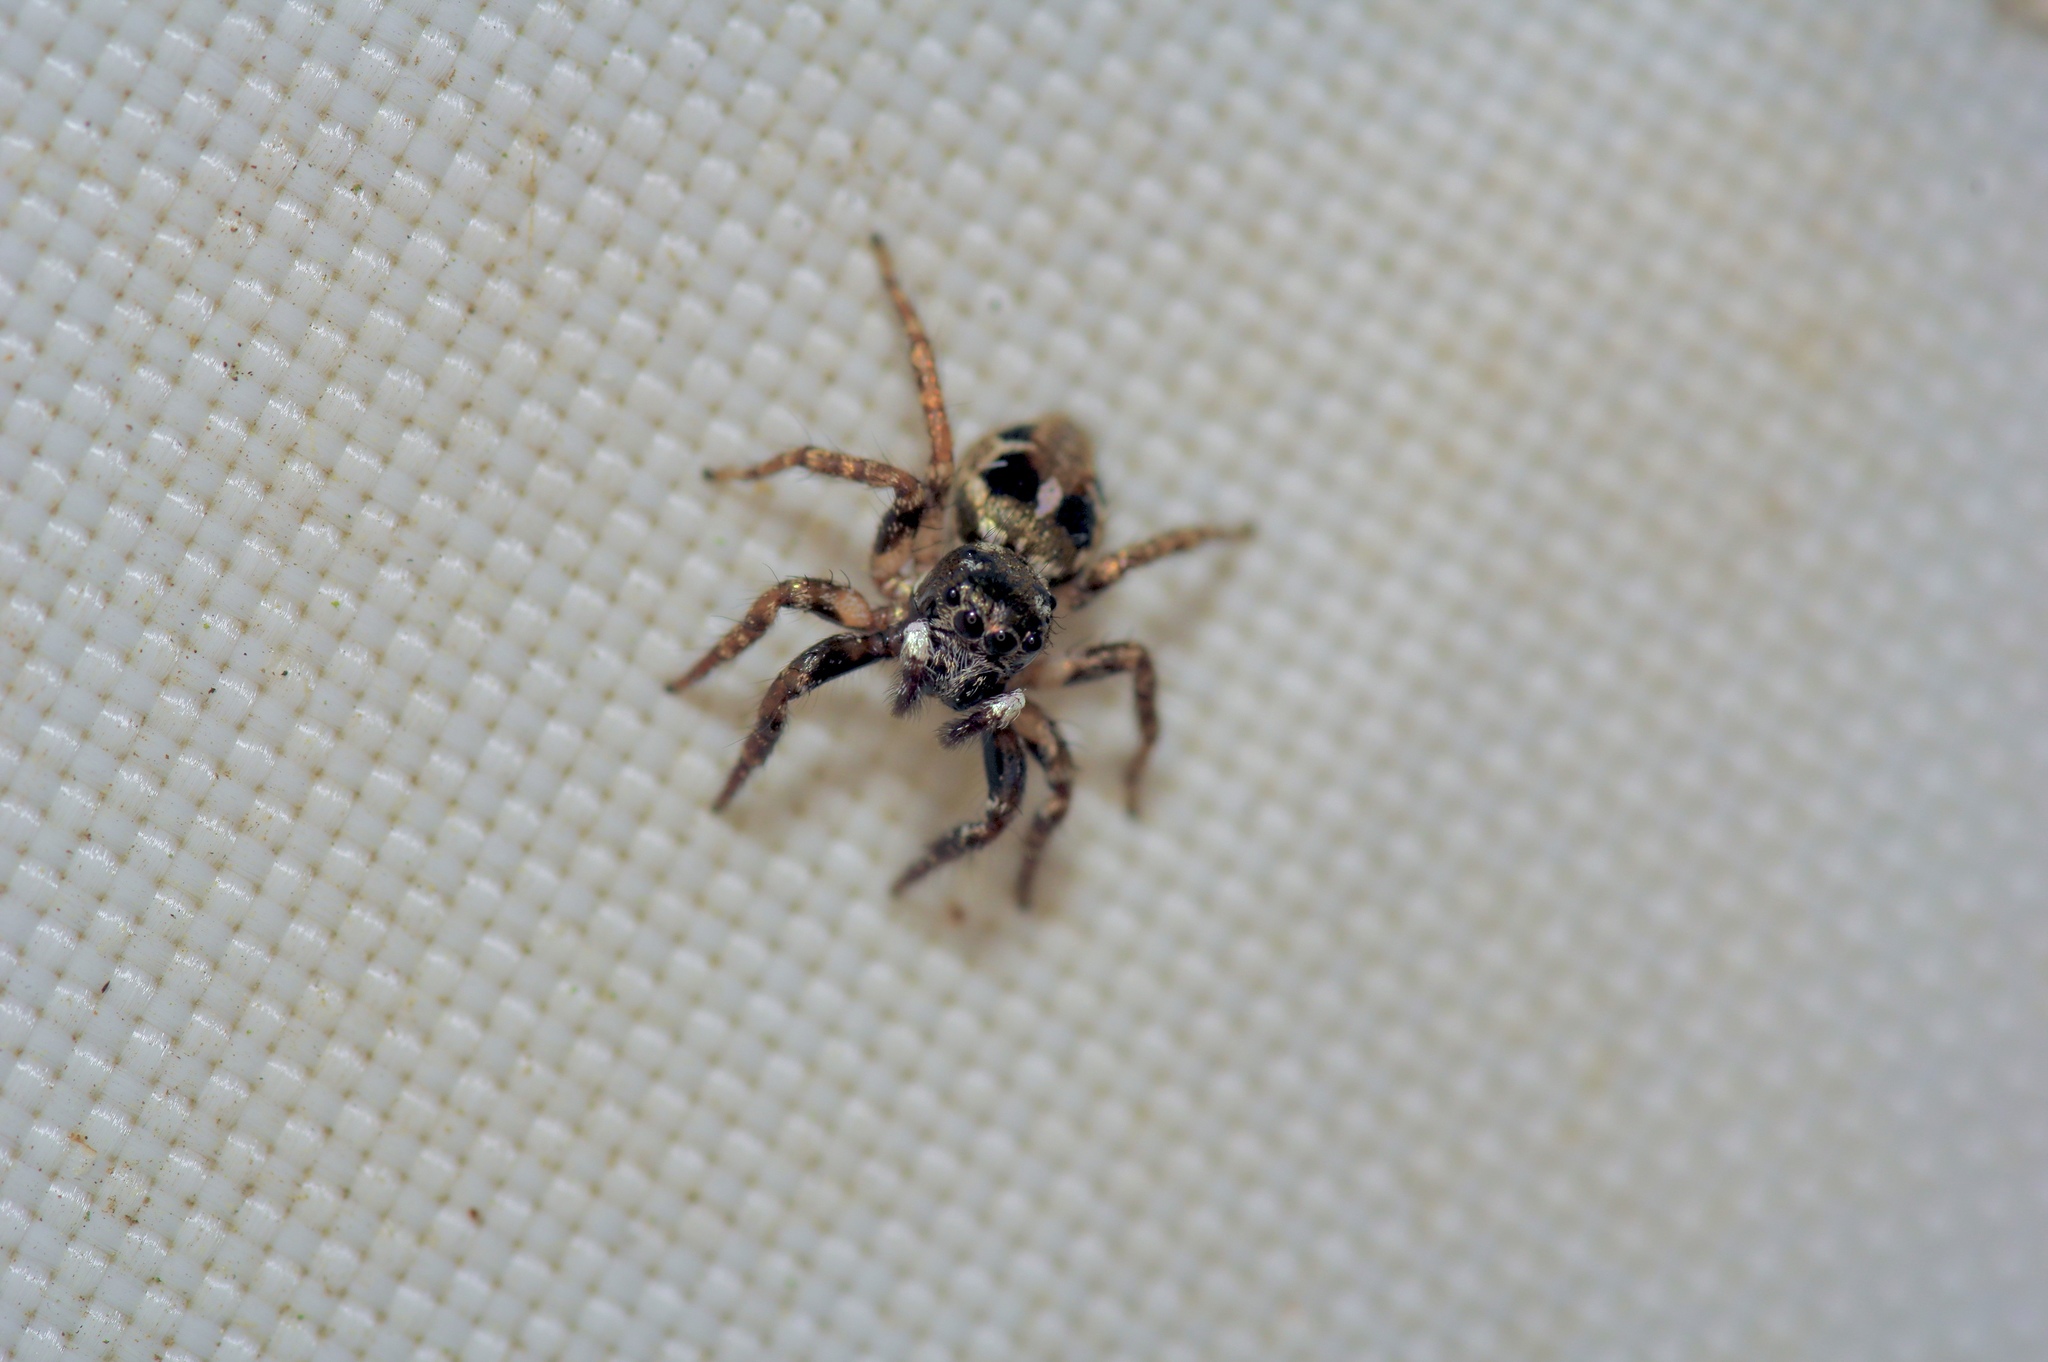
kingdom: Animalia
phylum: Arthropoda
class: Arachnida
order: Araneae
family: Salticidae
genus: Anasaitis
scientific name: Anasaitis canosa
